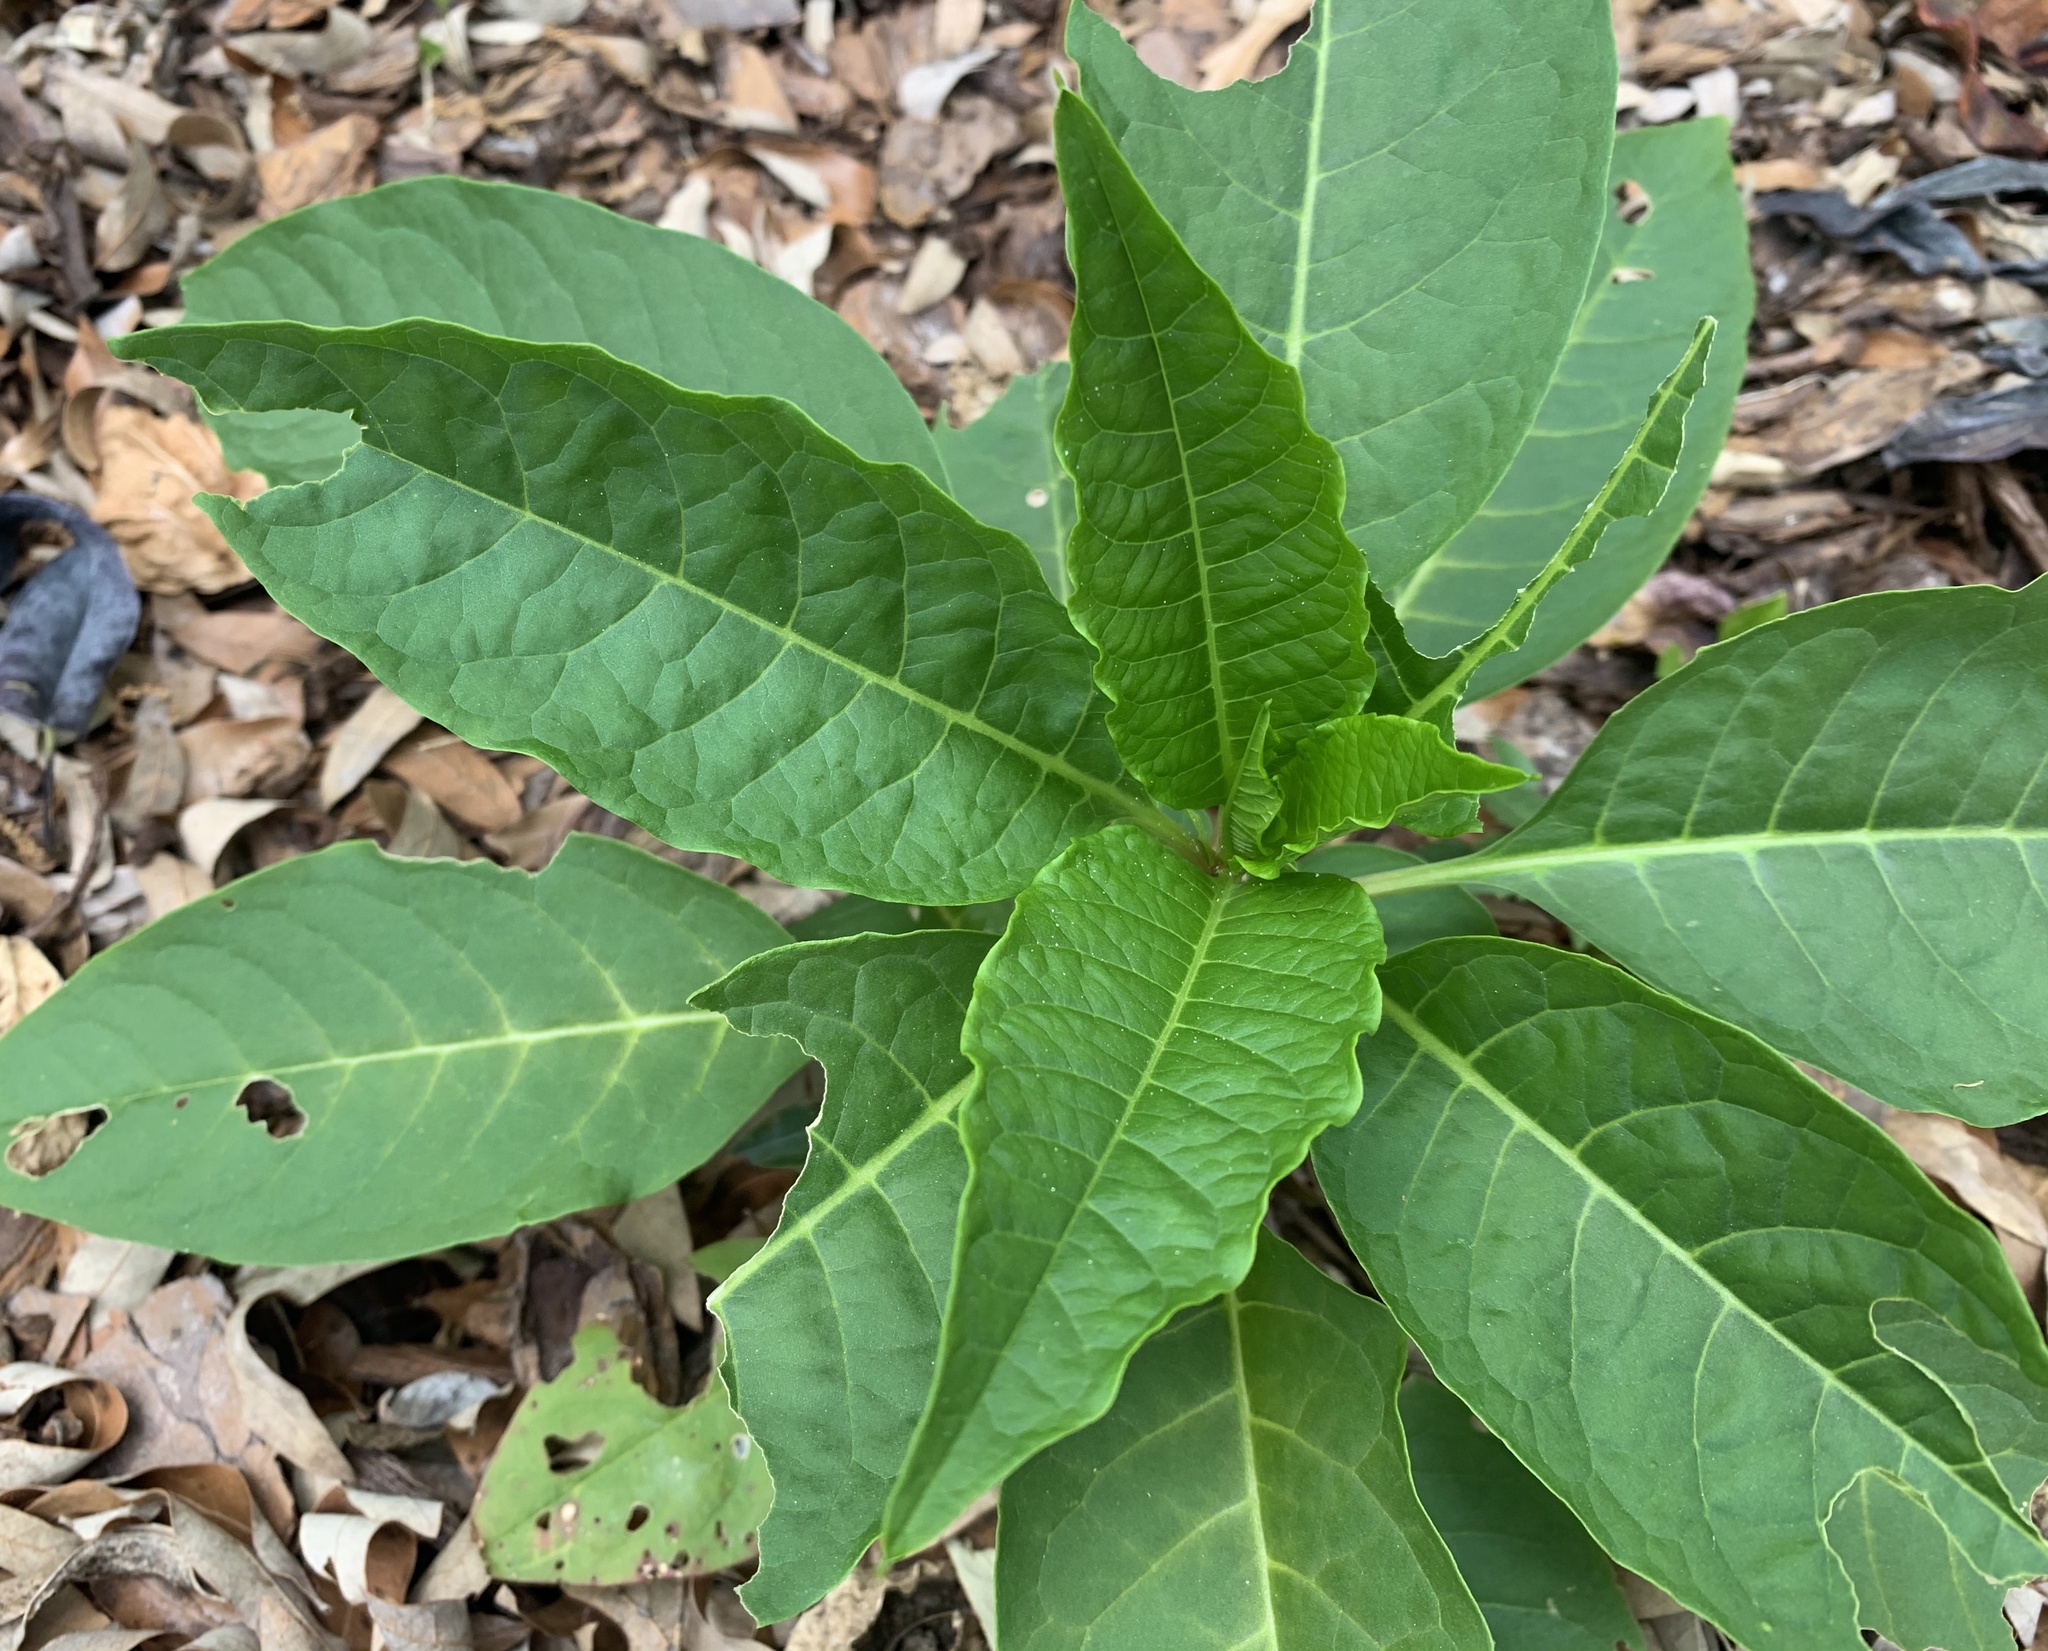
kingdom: Plantae
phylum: Tracheophyta
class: Magnoliopsida
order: Caryophyllales
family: Phytolaccaceae
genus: Phytolacca
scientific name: Phytolacca americana
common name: American pokeweed
